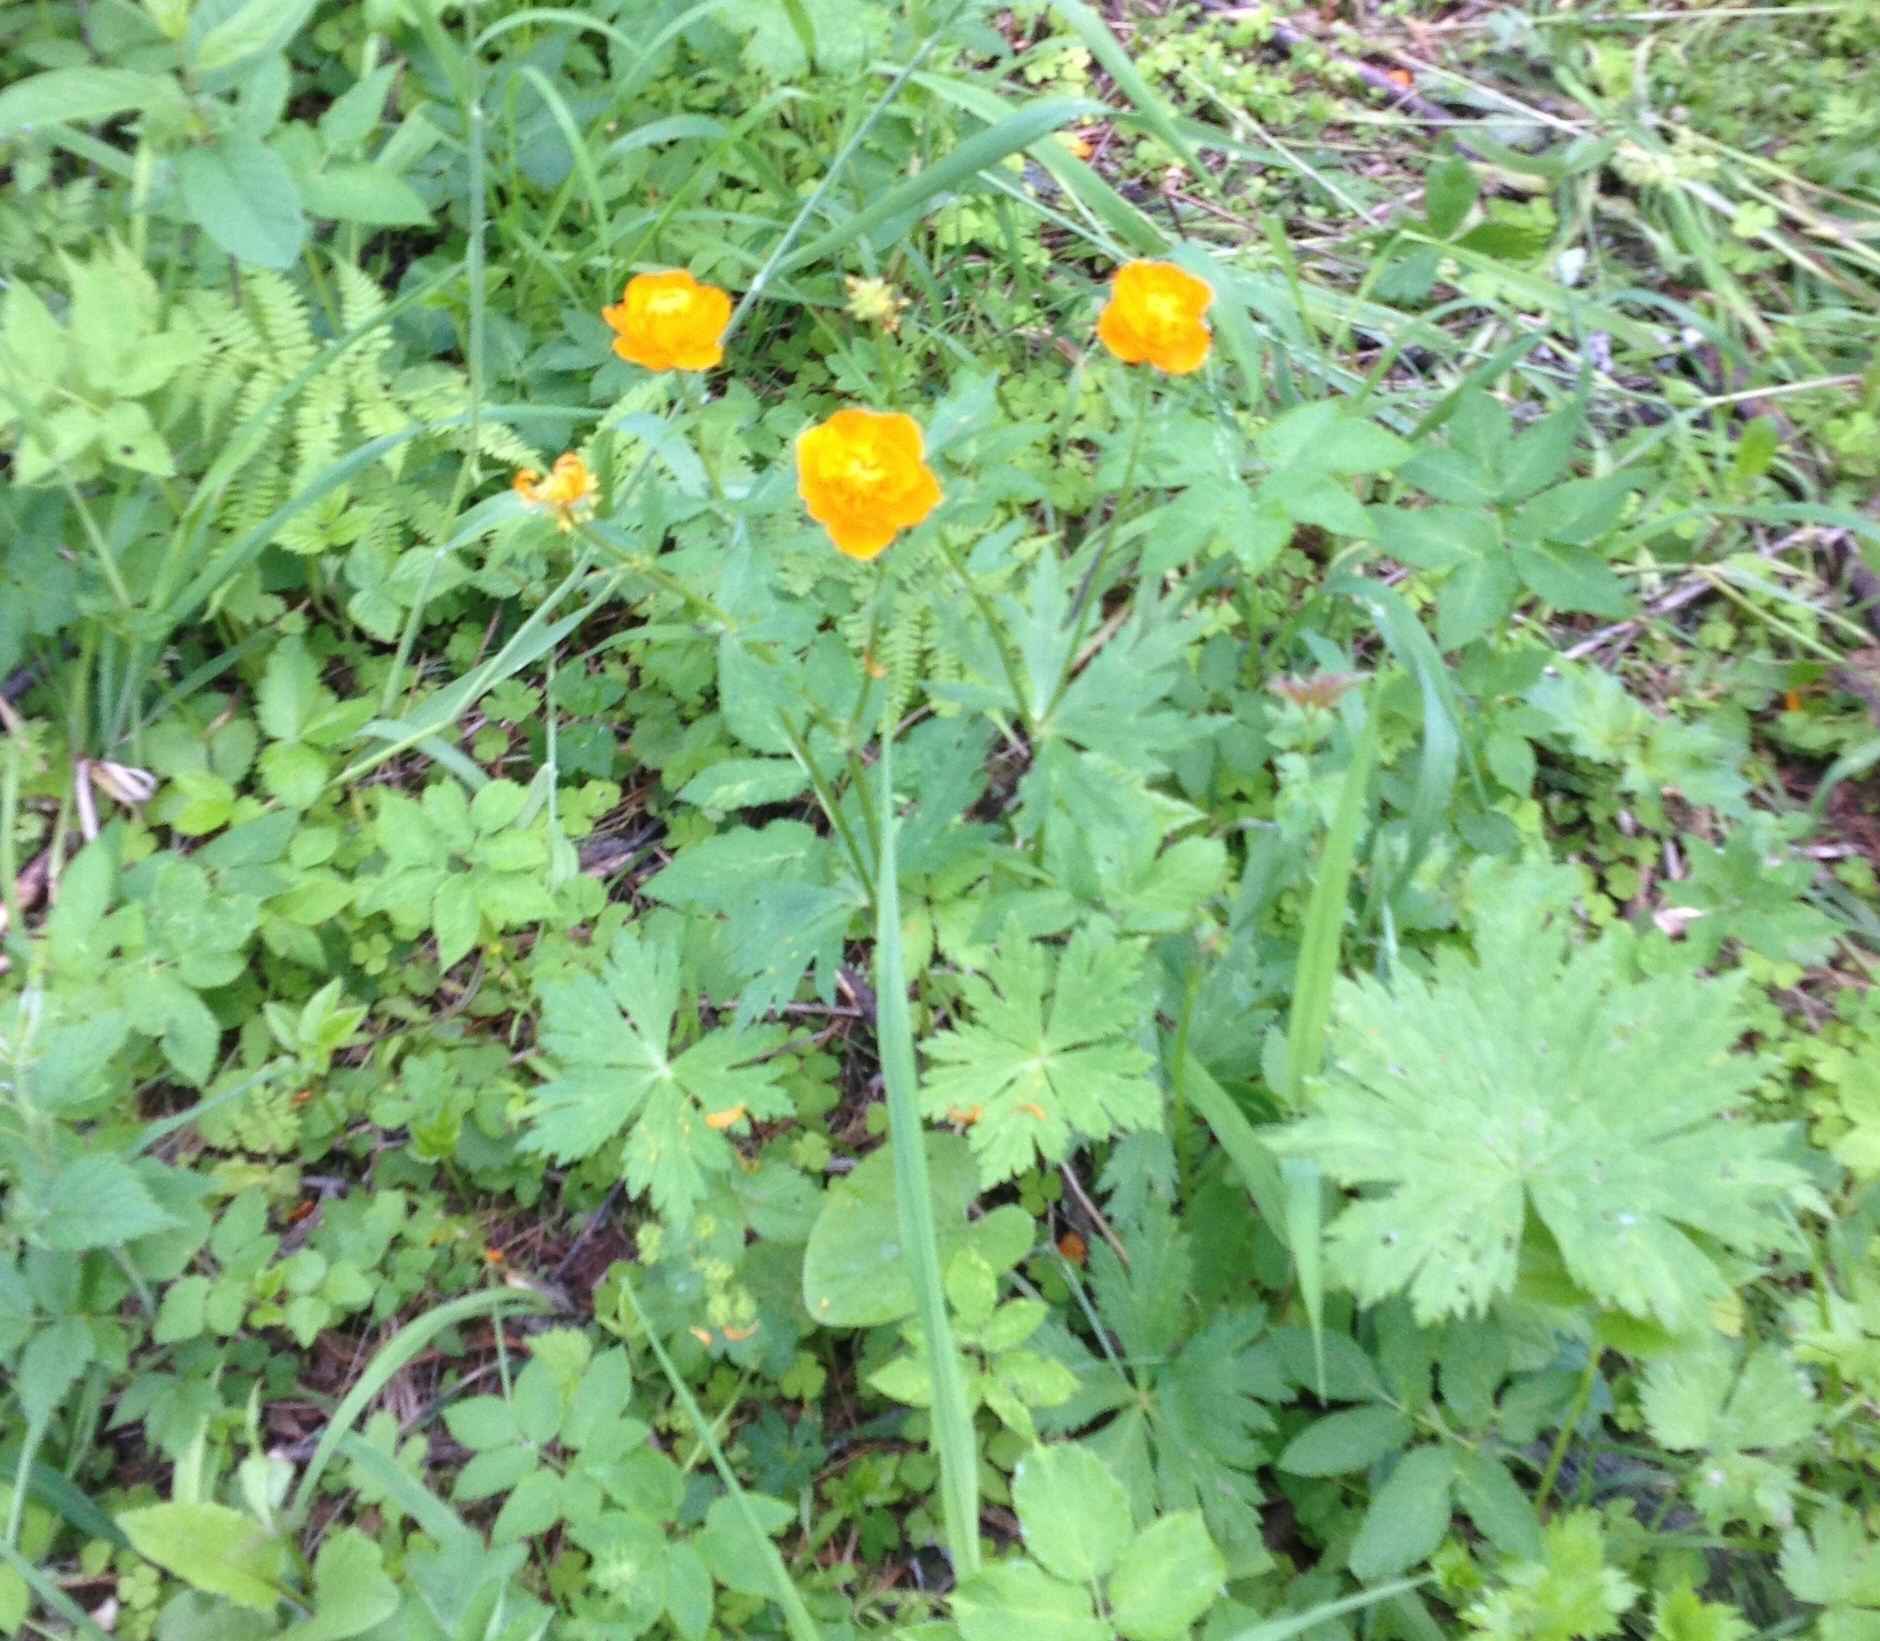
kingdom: Plantae
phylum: Tracheophyta
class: Magnoliopsida
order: Ranunculales
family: Ranunculaceae
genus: Trollius
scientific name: Trollius asiaticus
